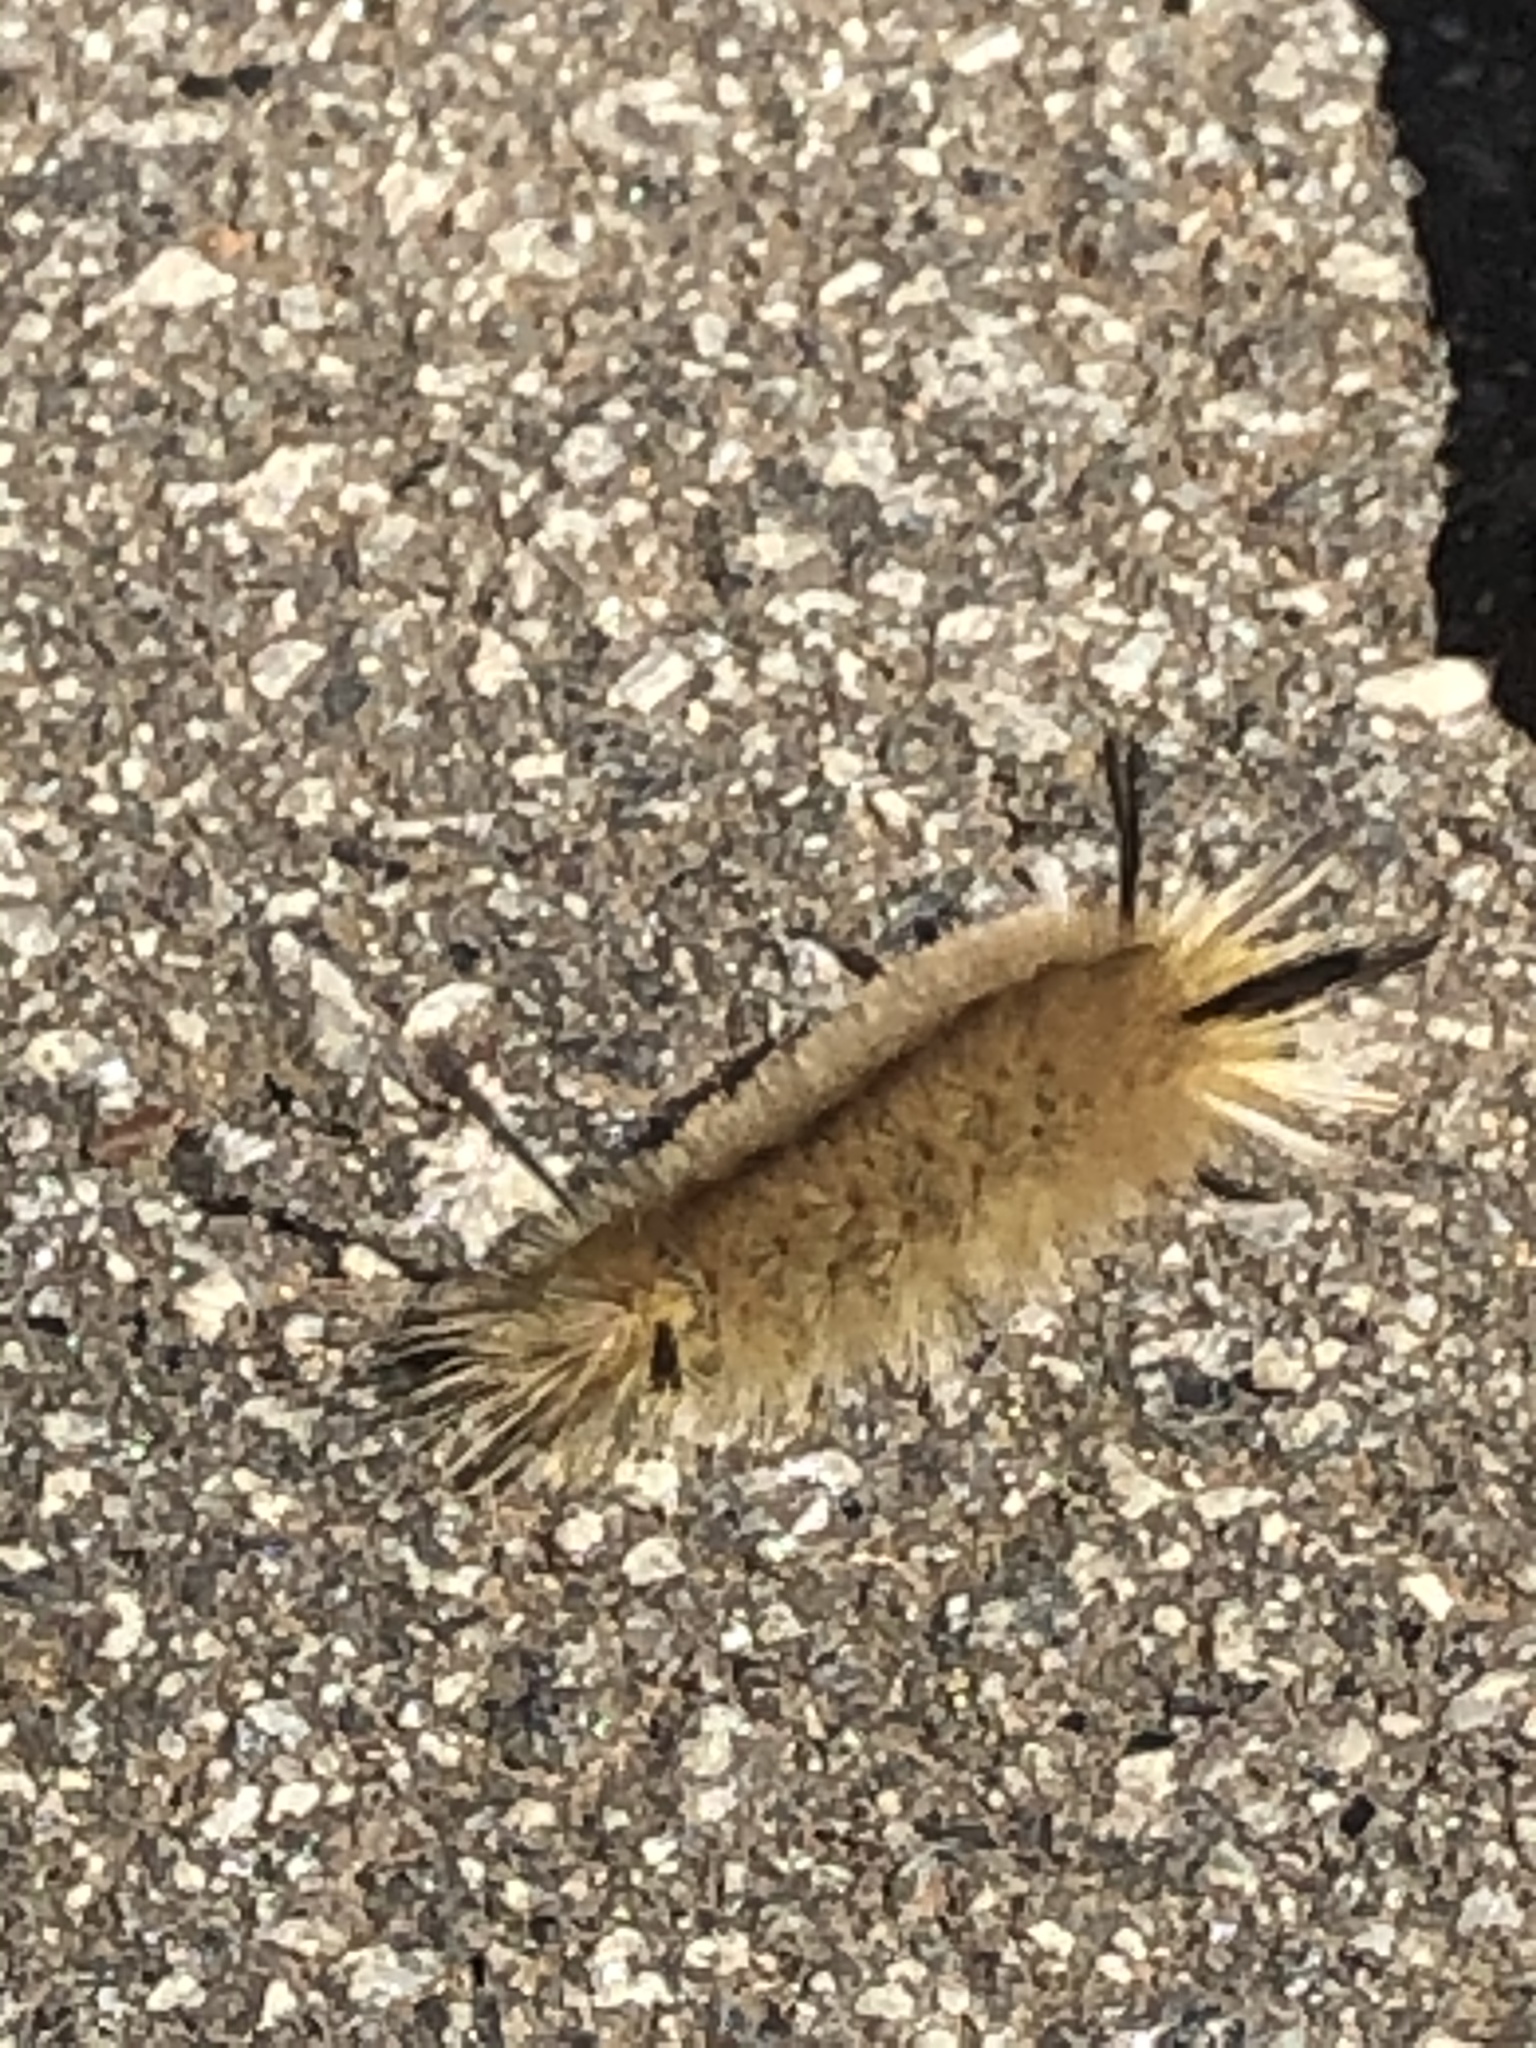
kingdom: Animalia
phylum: Arthropoda
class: Insecta
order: Lepidoptera
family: Erebidae
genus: Halysidota
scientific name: Halysidota tessellaris
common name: Banded tussock moth
